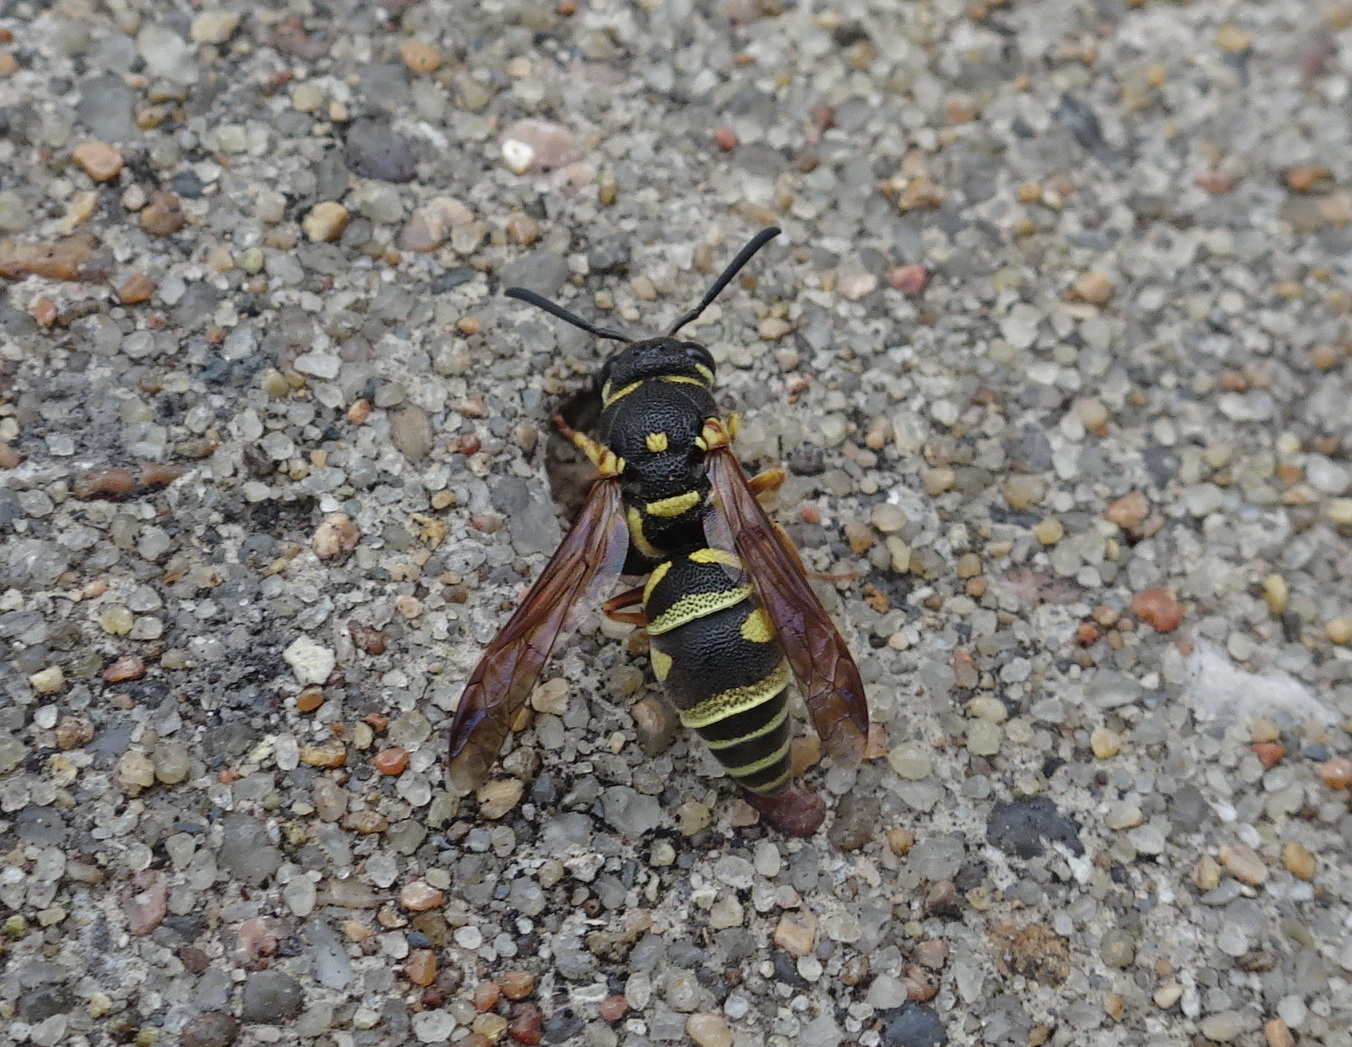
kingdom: Animalia
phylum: Arthropoda
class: Insecta
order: Hymenoptera
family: Eumenidae
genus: Parancistrocerus
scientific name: Parancistrocerus leionotus
